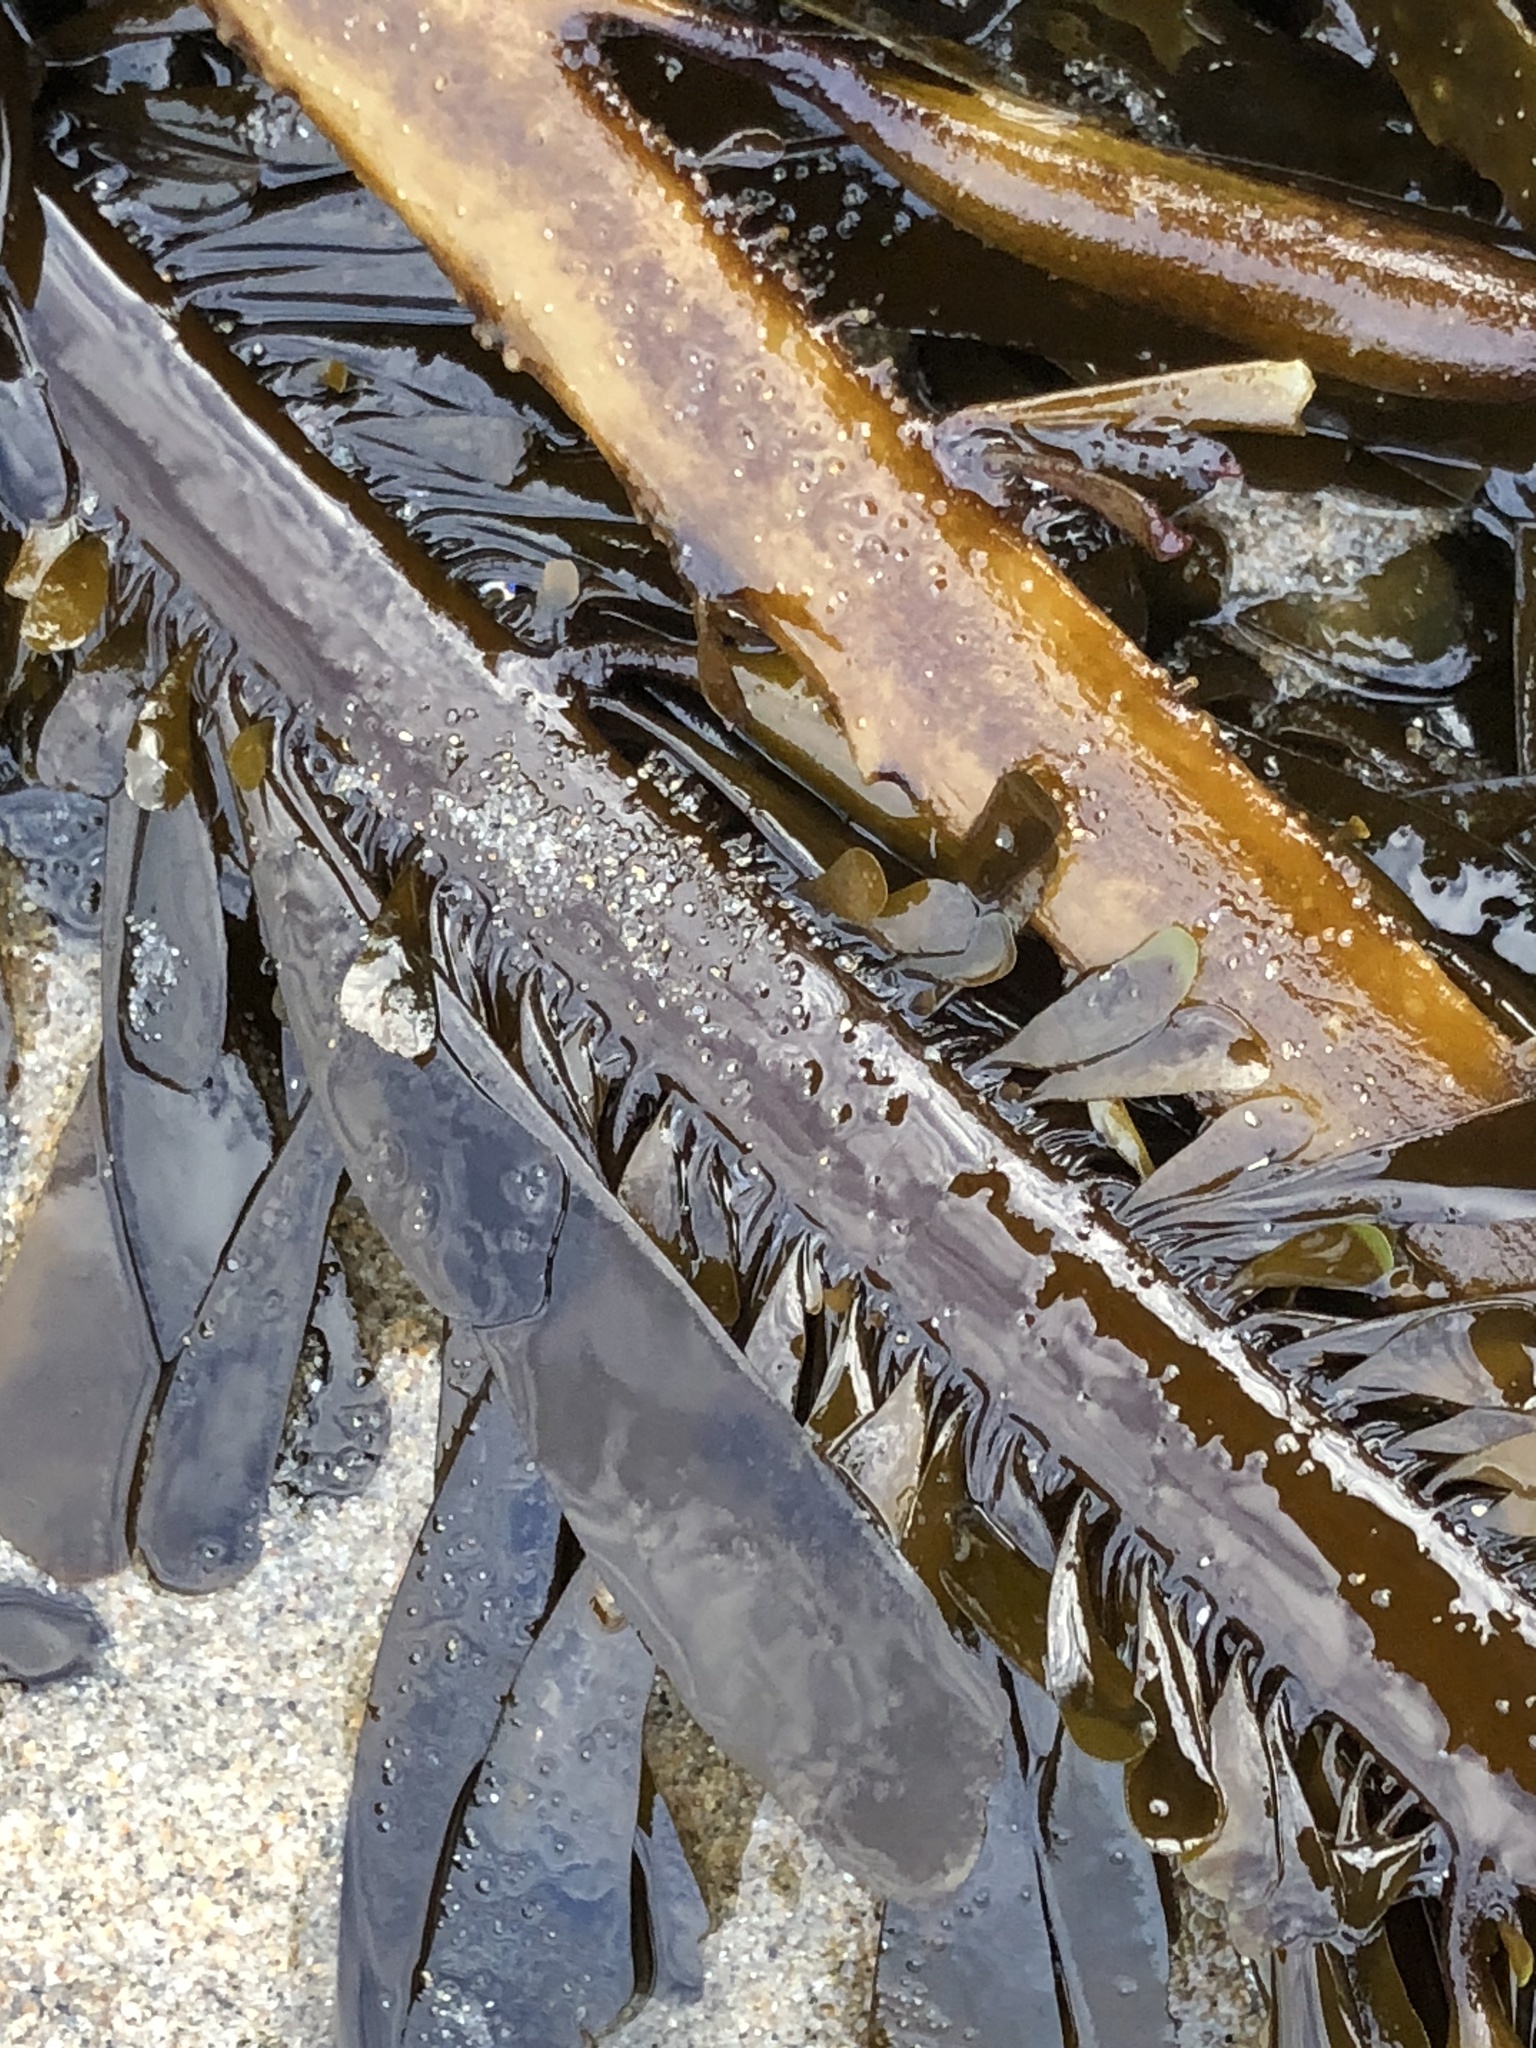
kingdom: Chromista
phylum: Ochrophyta
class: Phaeophyceae
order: Laminariales
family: Lessoniaceae
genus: Egregia
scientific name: Egregia menziesii
